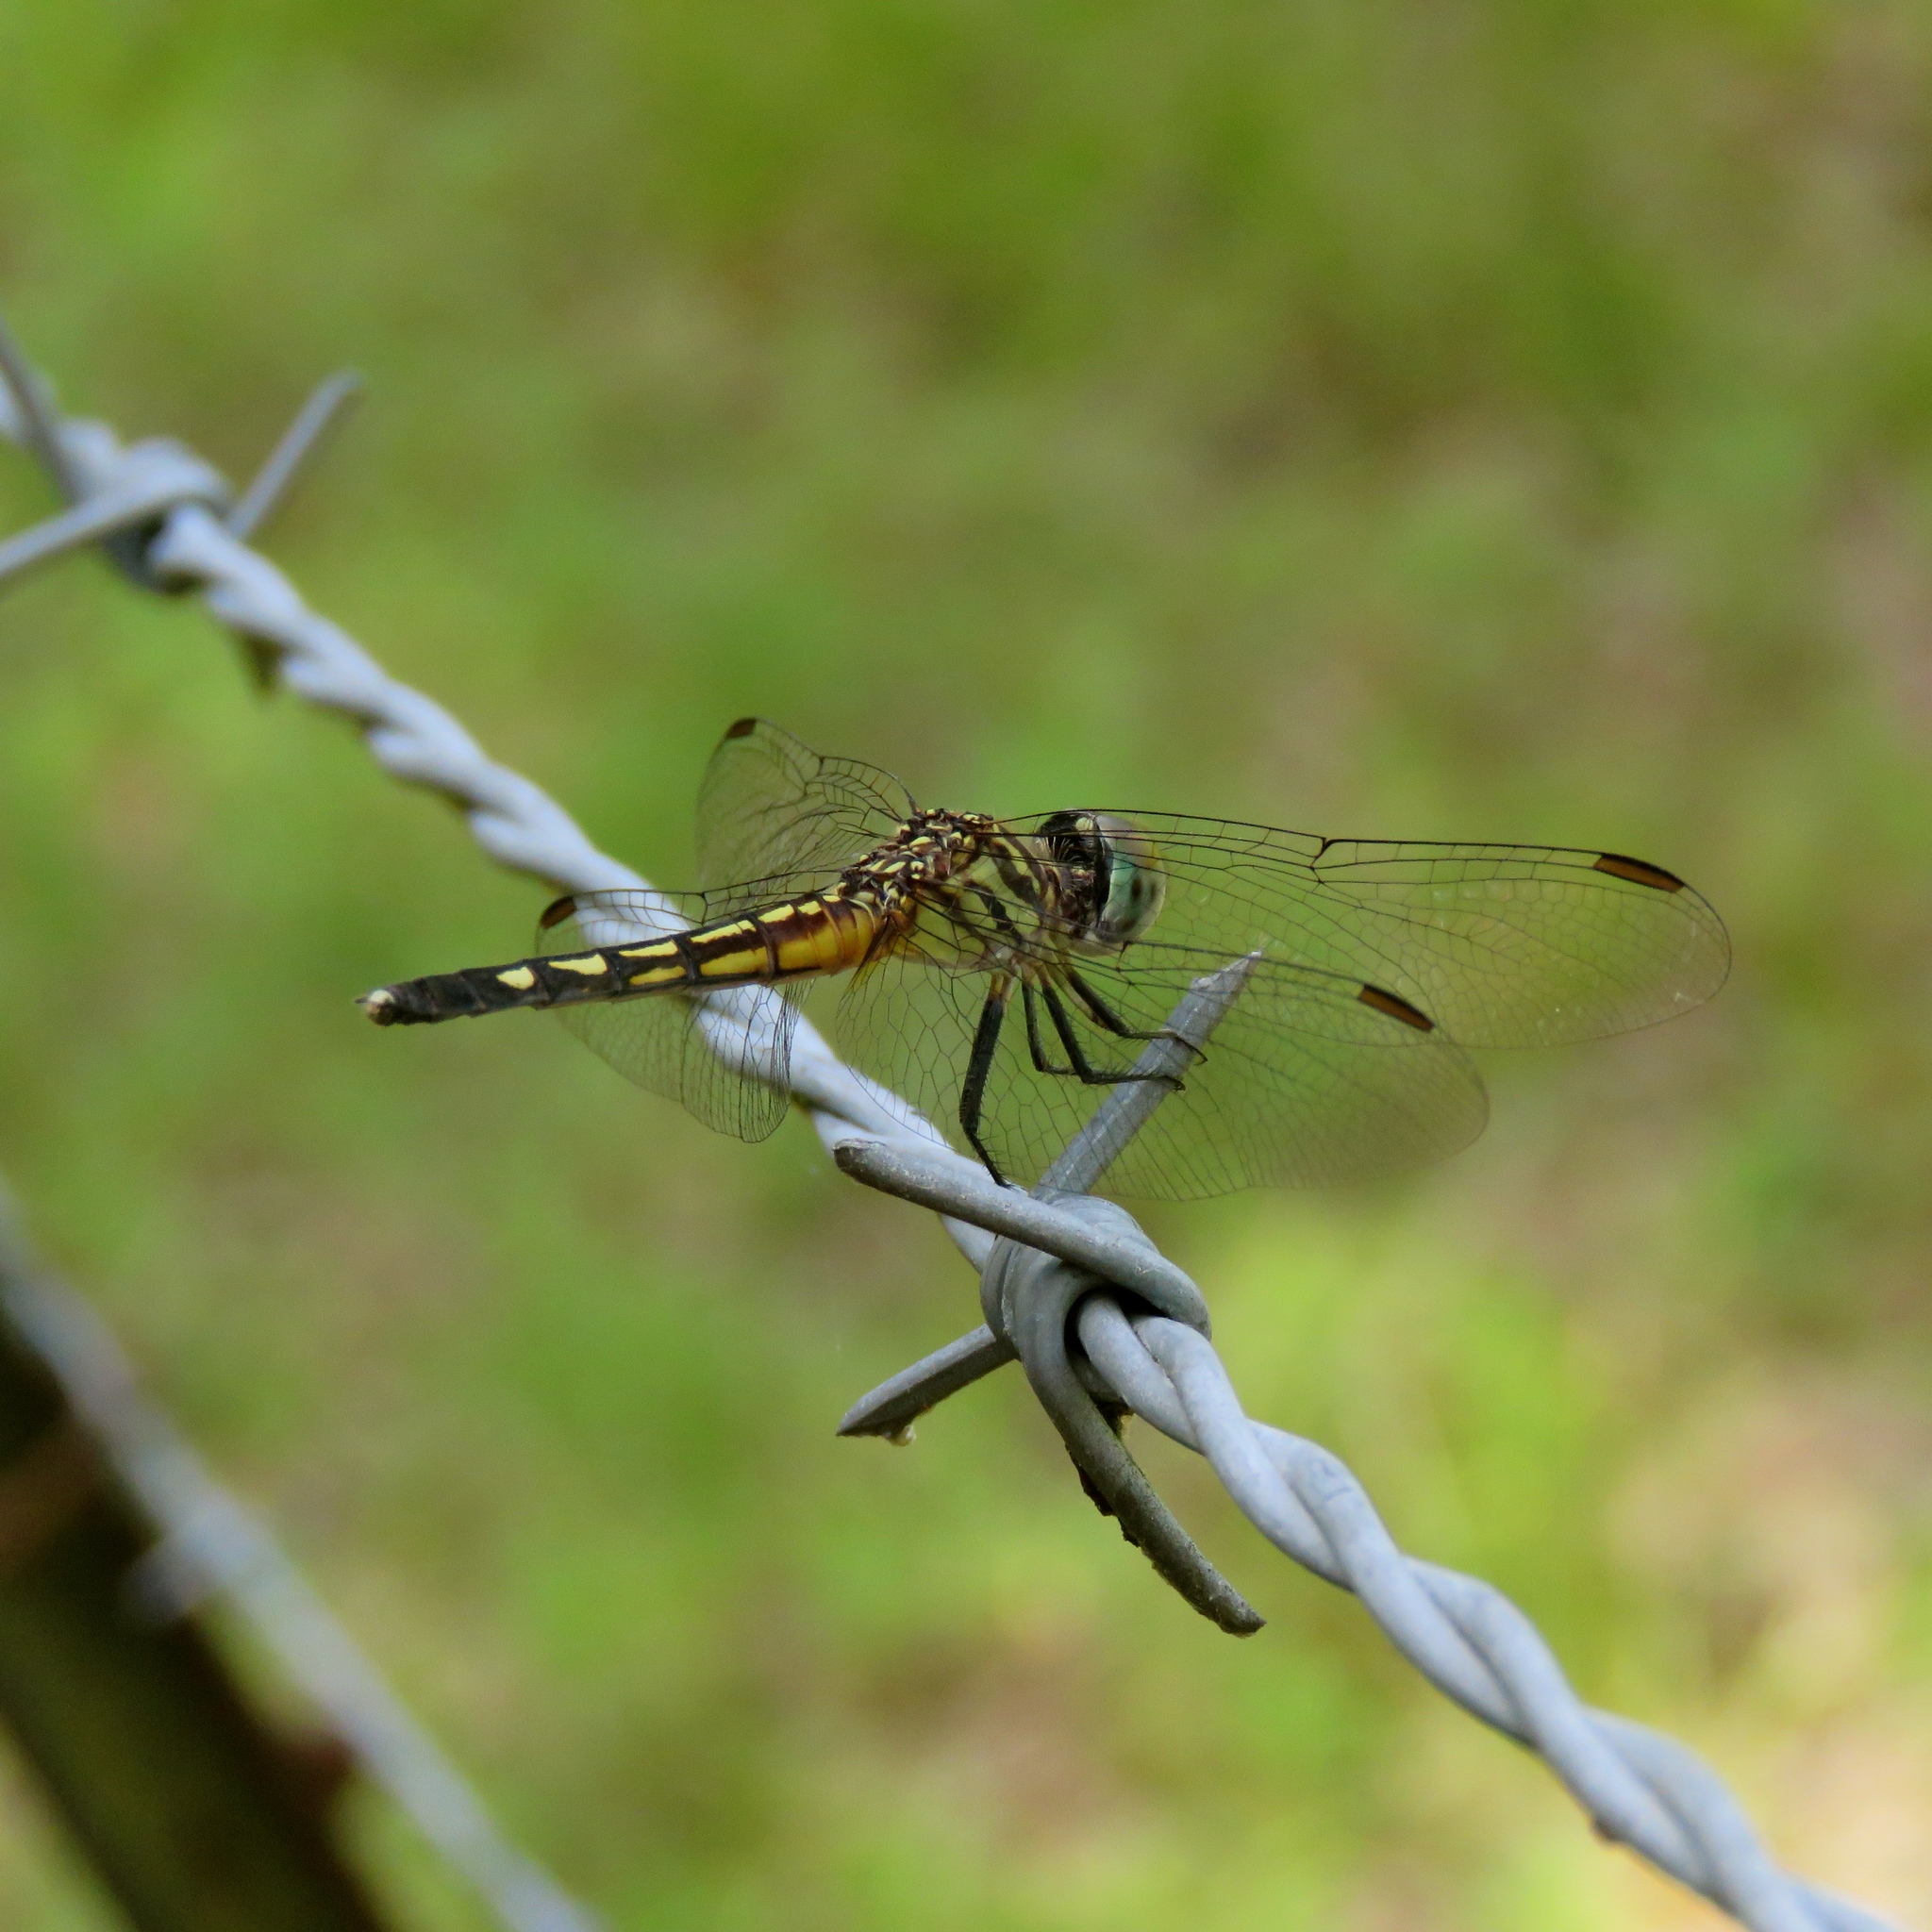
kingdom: Animalia
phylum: Arthropoda
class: Insecta
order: Odonata
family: Libellulidae
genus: Pachydiplax
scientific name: Pachydiplax longipennis
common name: Blue dasher
